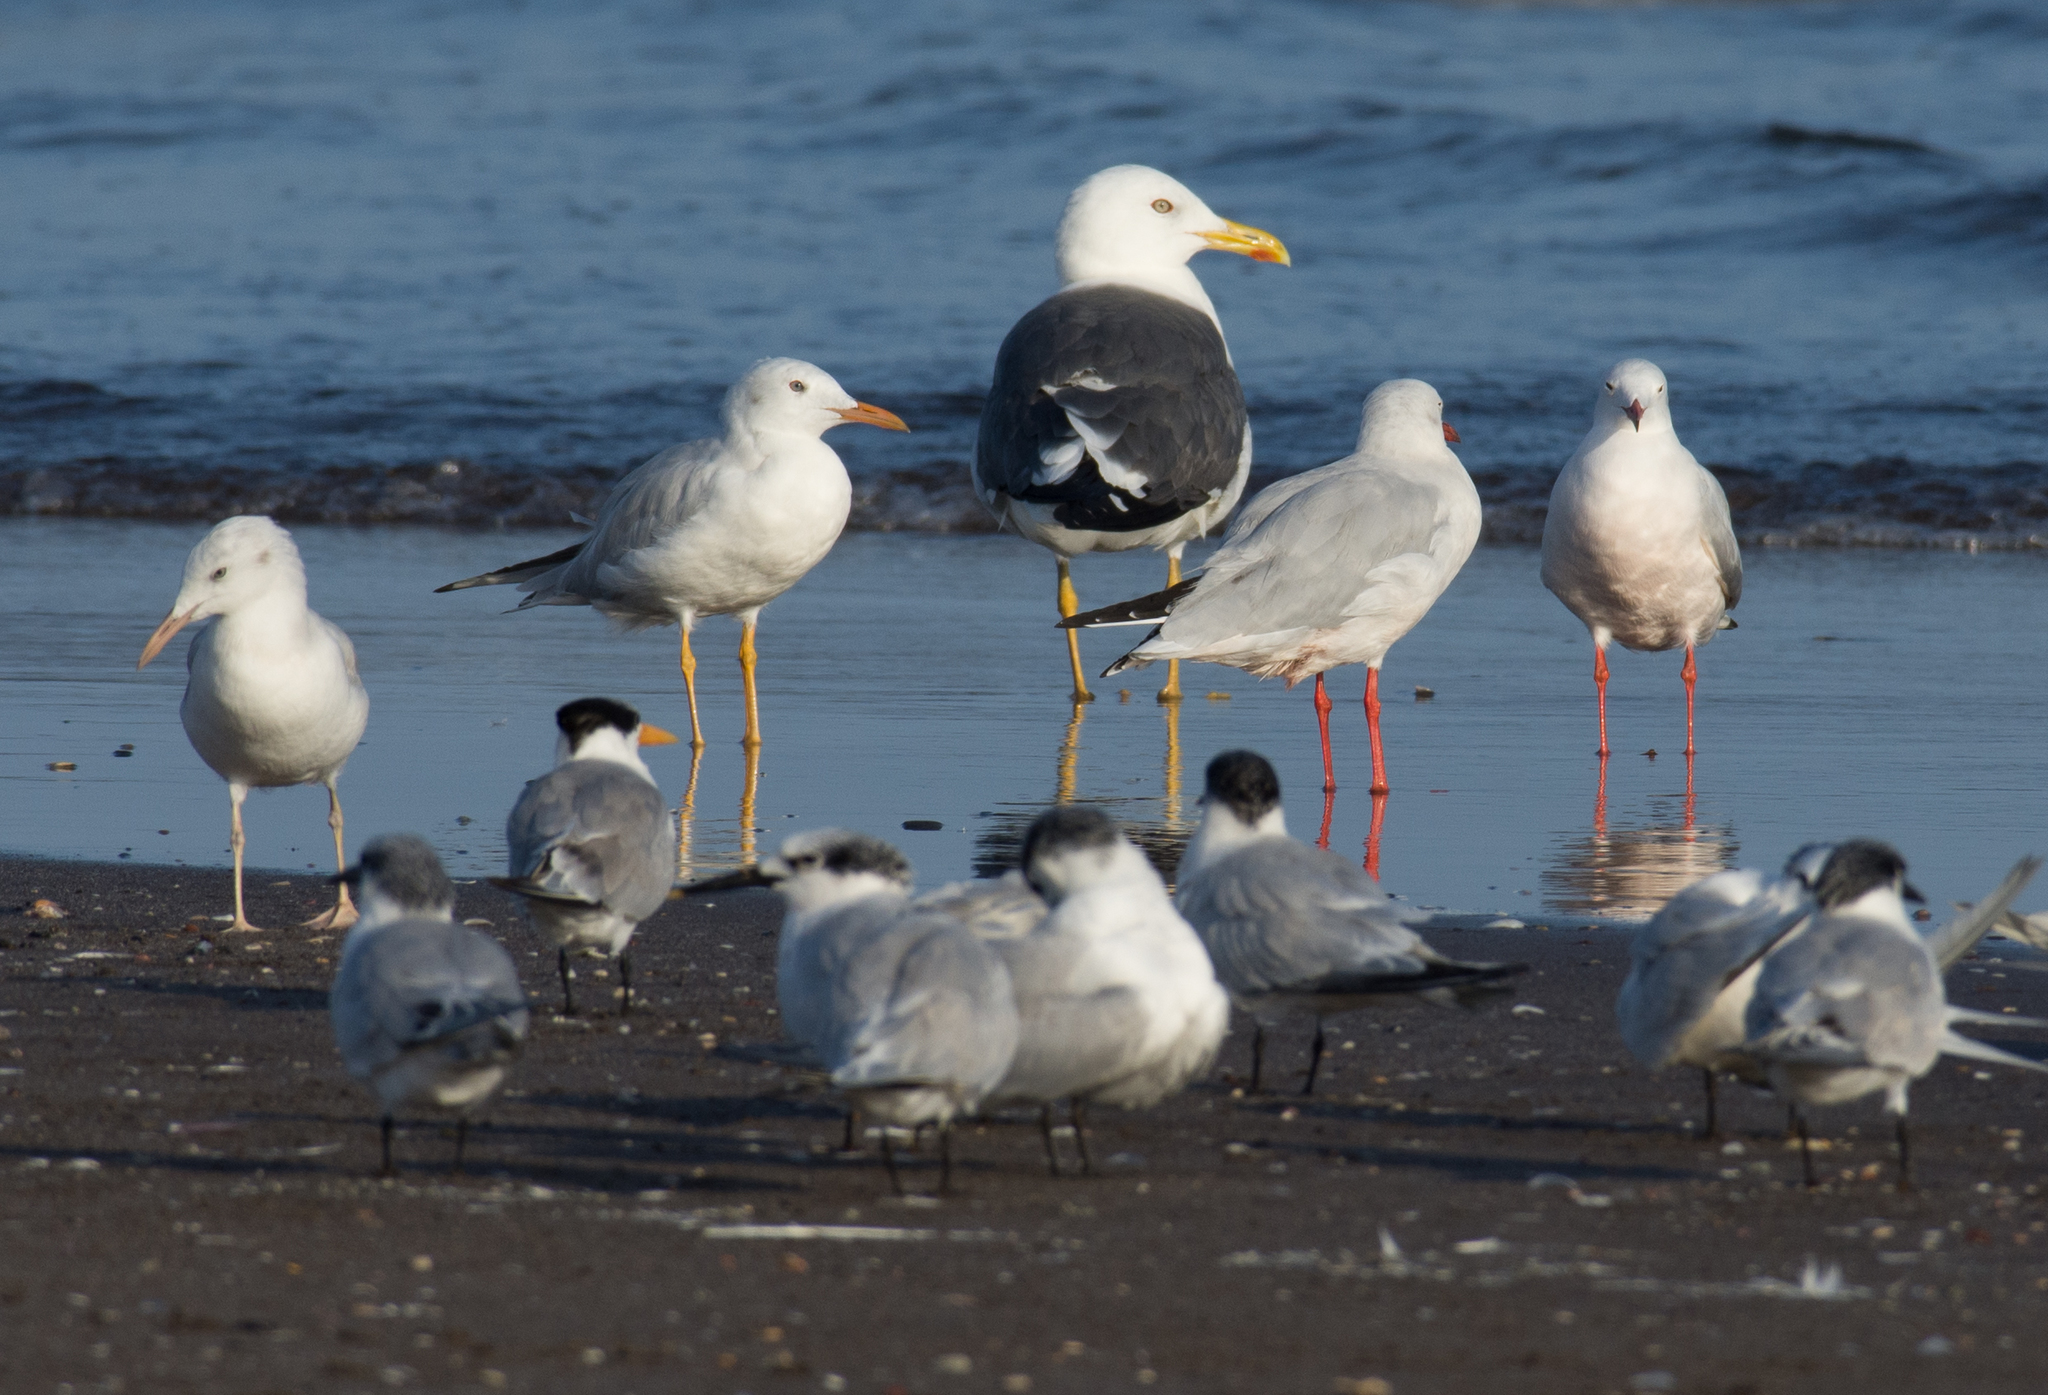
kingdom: Animalia
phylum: Chordata
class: Aves
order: Charadriiformes
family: Laridae
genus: Larus
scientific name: Larus fuscus
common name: Lesser black-backed gull
